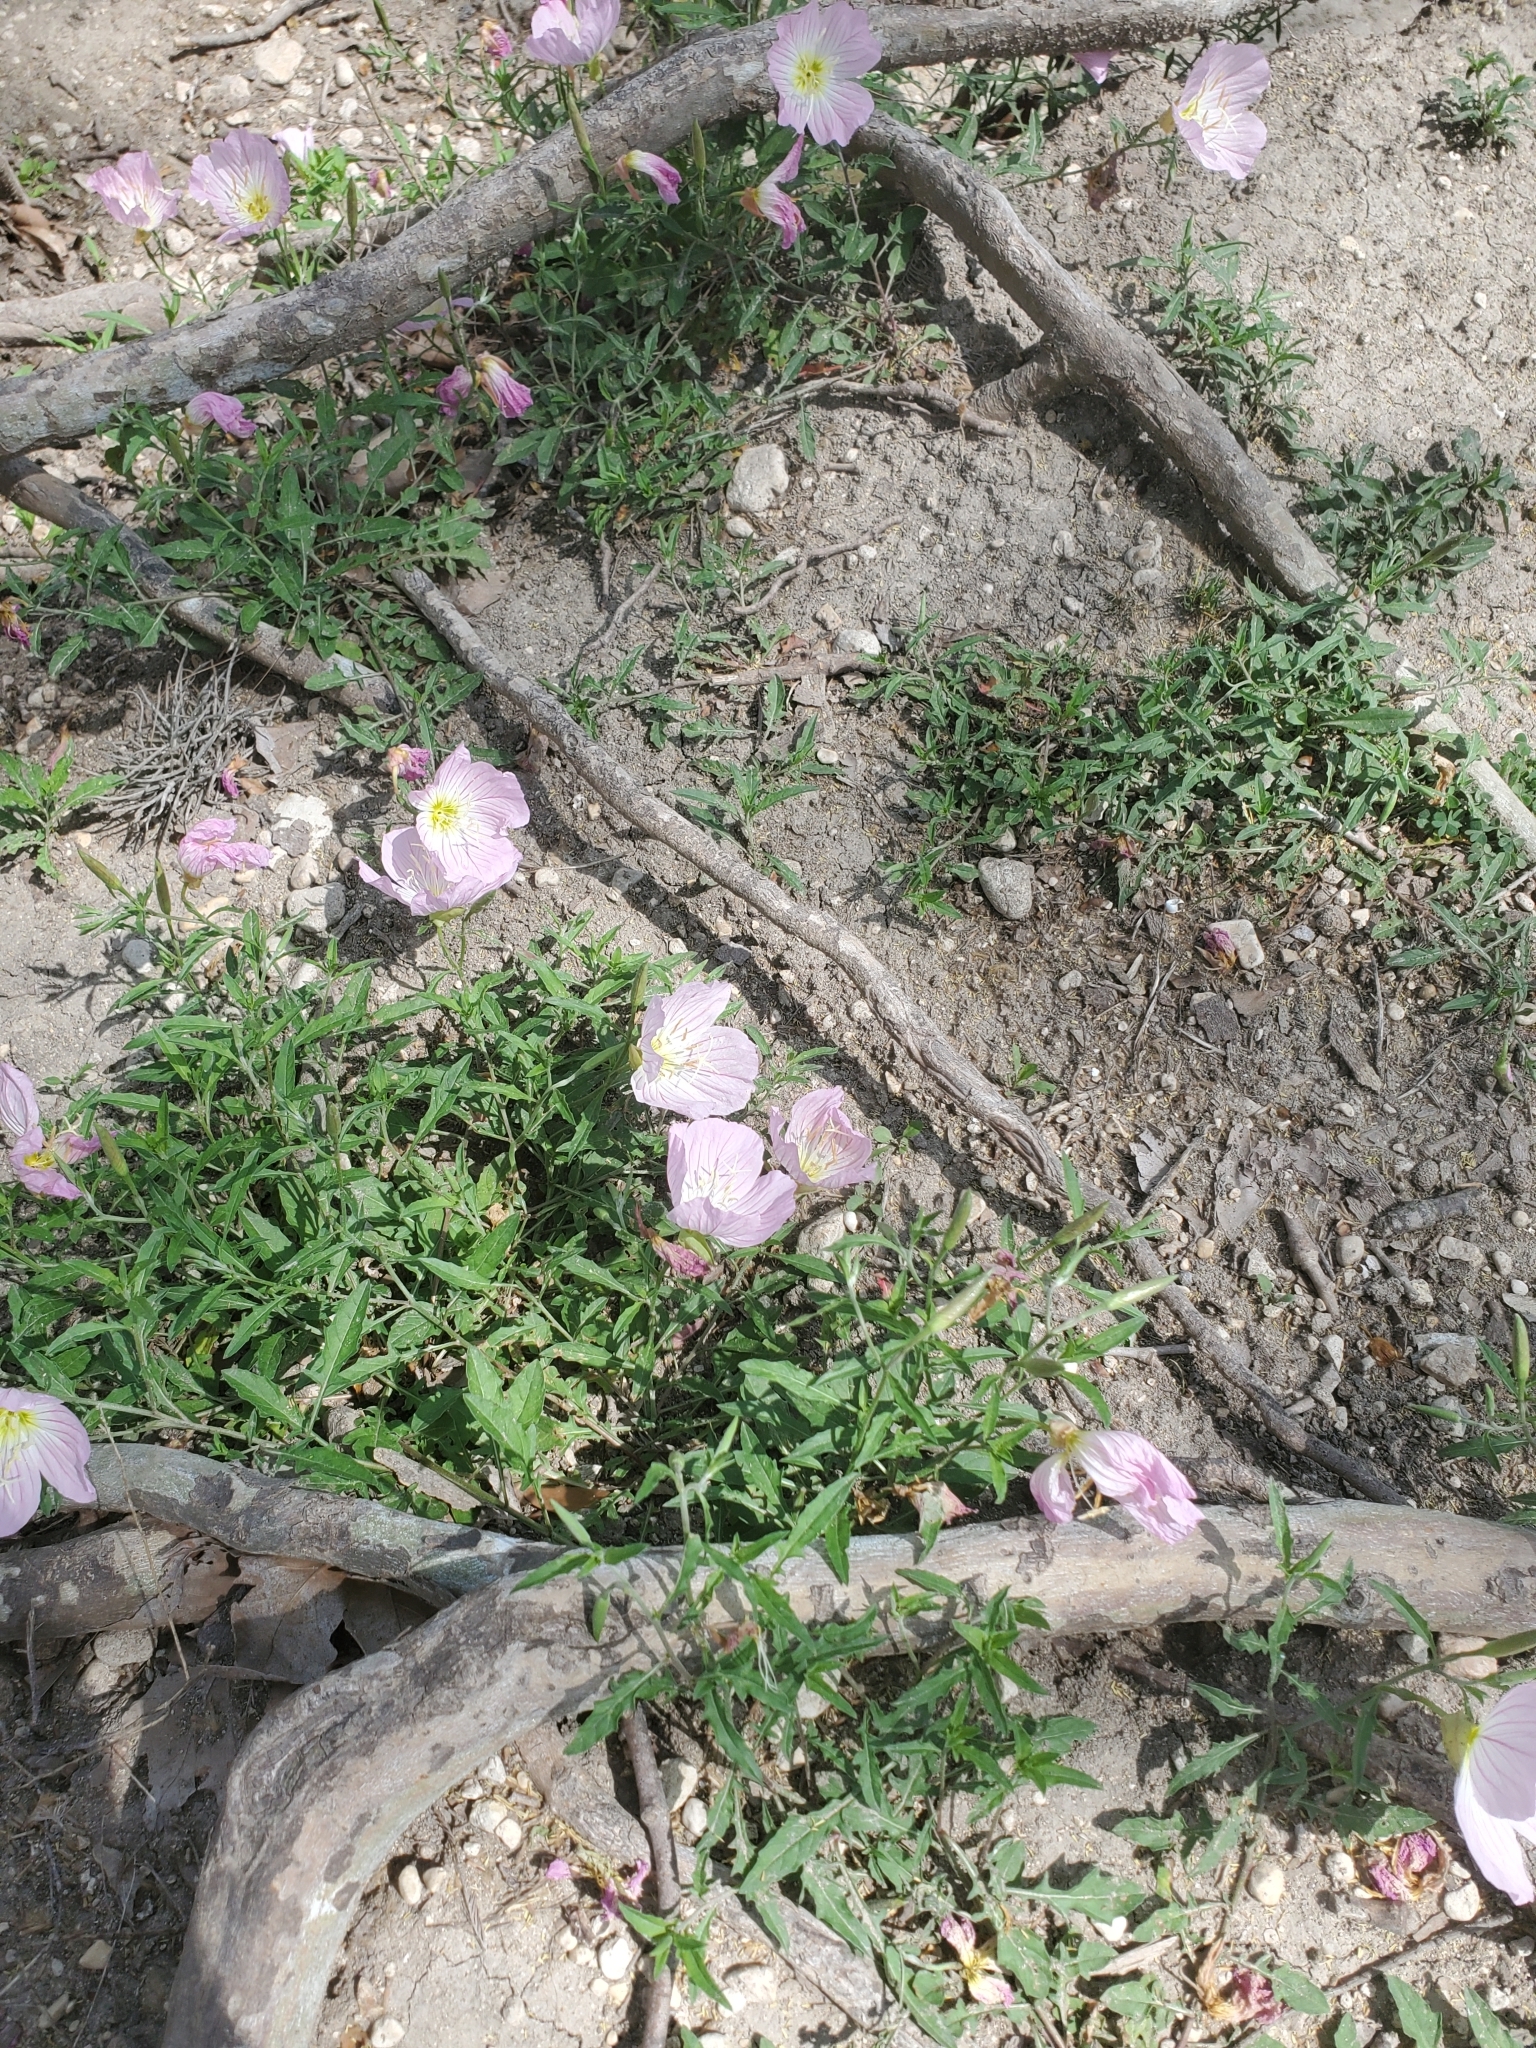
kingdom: Plantae
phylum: Tracheophyta
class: Magnoliopsida
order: Myrtales
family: Onagraceae
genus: Oenothera
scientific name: Oenothera speciosa
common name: White evening-primrose
